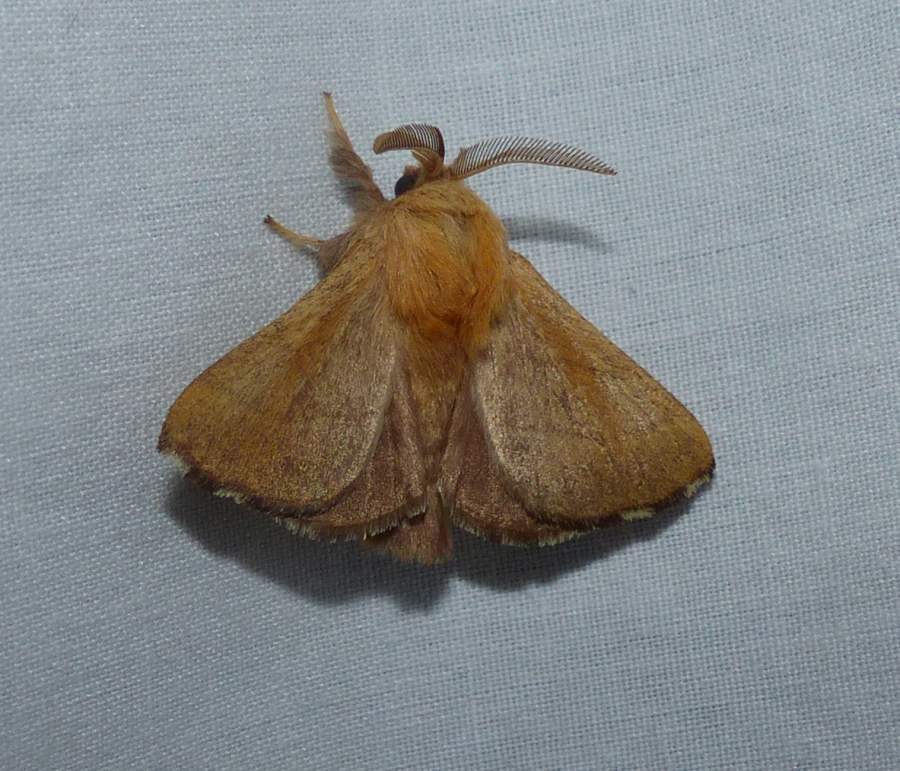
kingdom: Animalia
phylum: Arthropoda
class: Insecta
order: Lepidoptera
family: Lasiocampidae
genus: Malacosoma
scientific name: Malacosoma disstria
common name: Forest tent caterpillar
